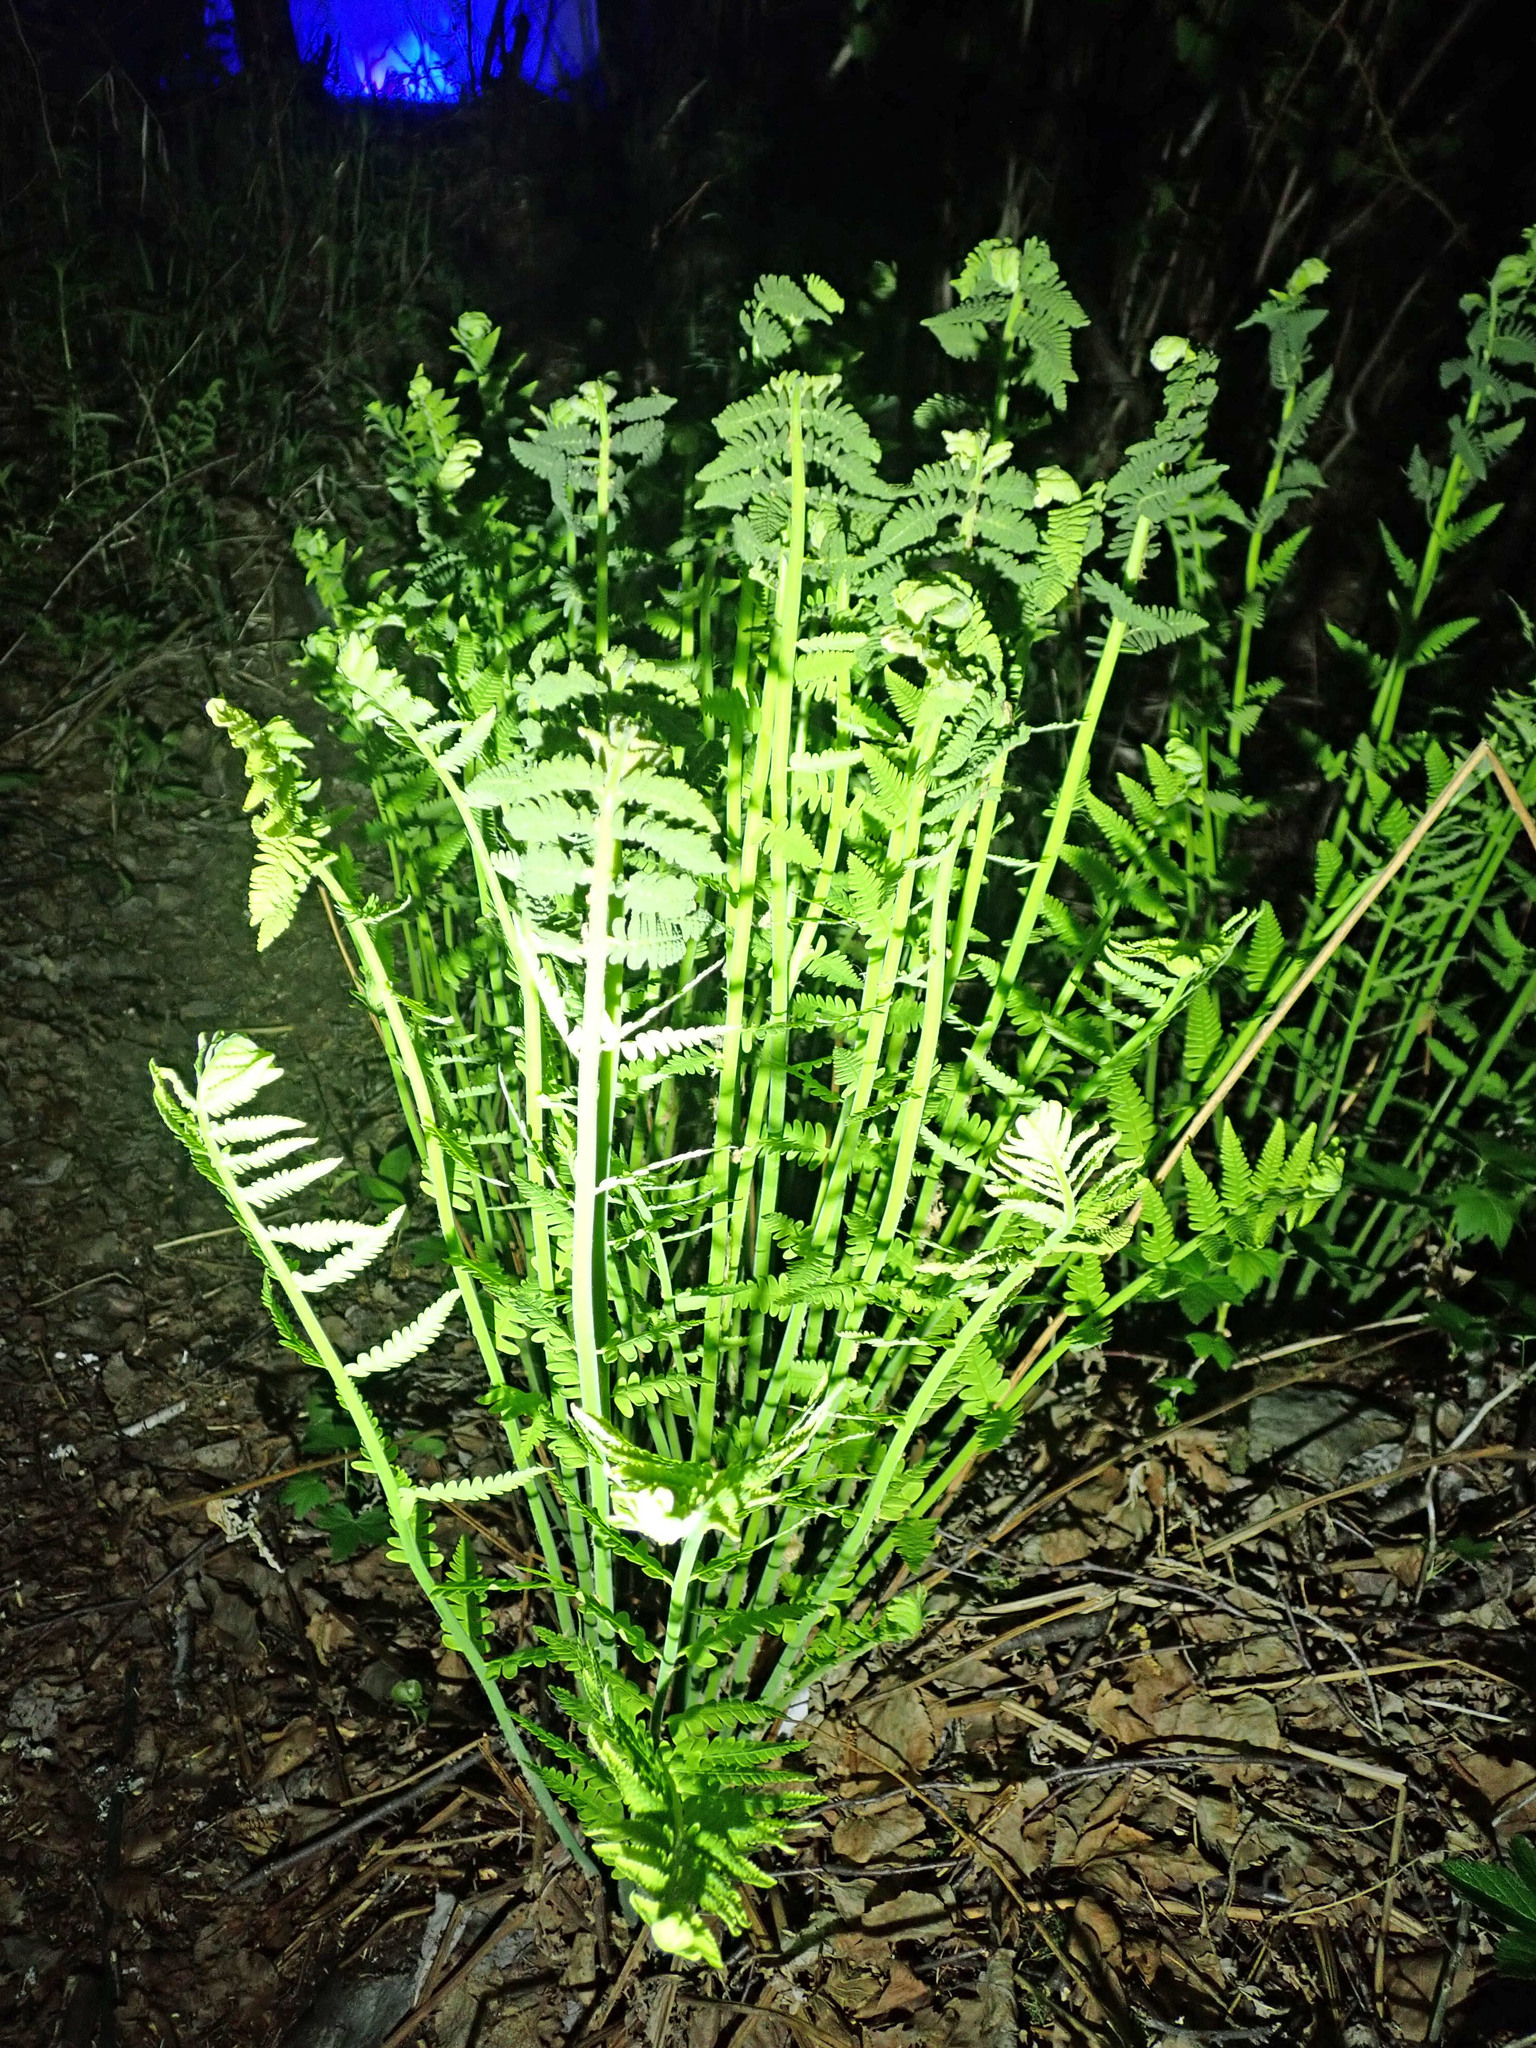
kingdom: Plantae
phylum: Tracheophyta
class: Polypodiopsida
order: Osmundales
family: Osmundaceae
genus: Claytosmunda
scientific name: Claytosmunda claytoniana
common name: Clayton's fern
